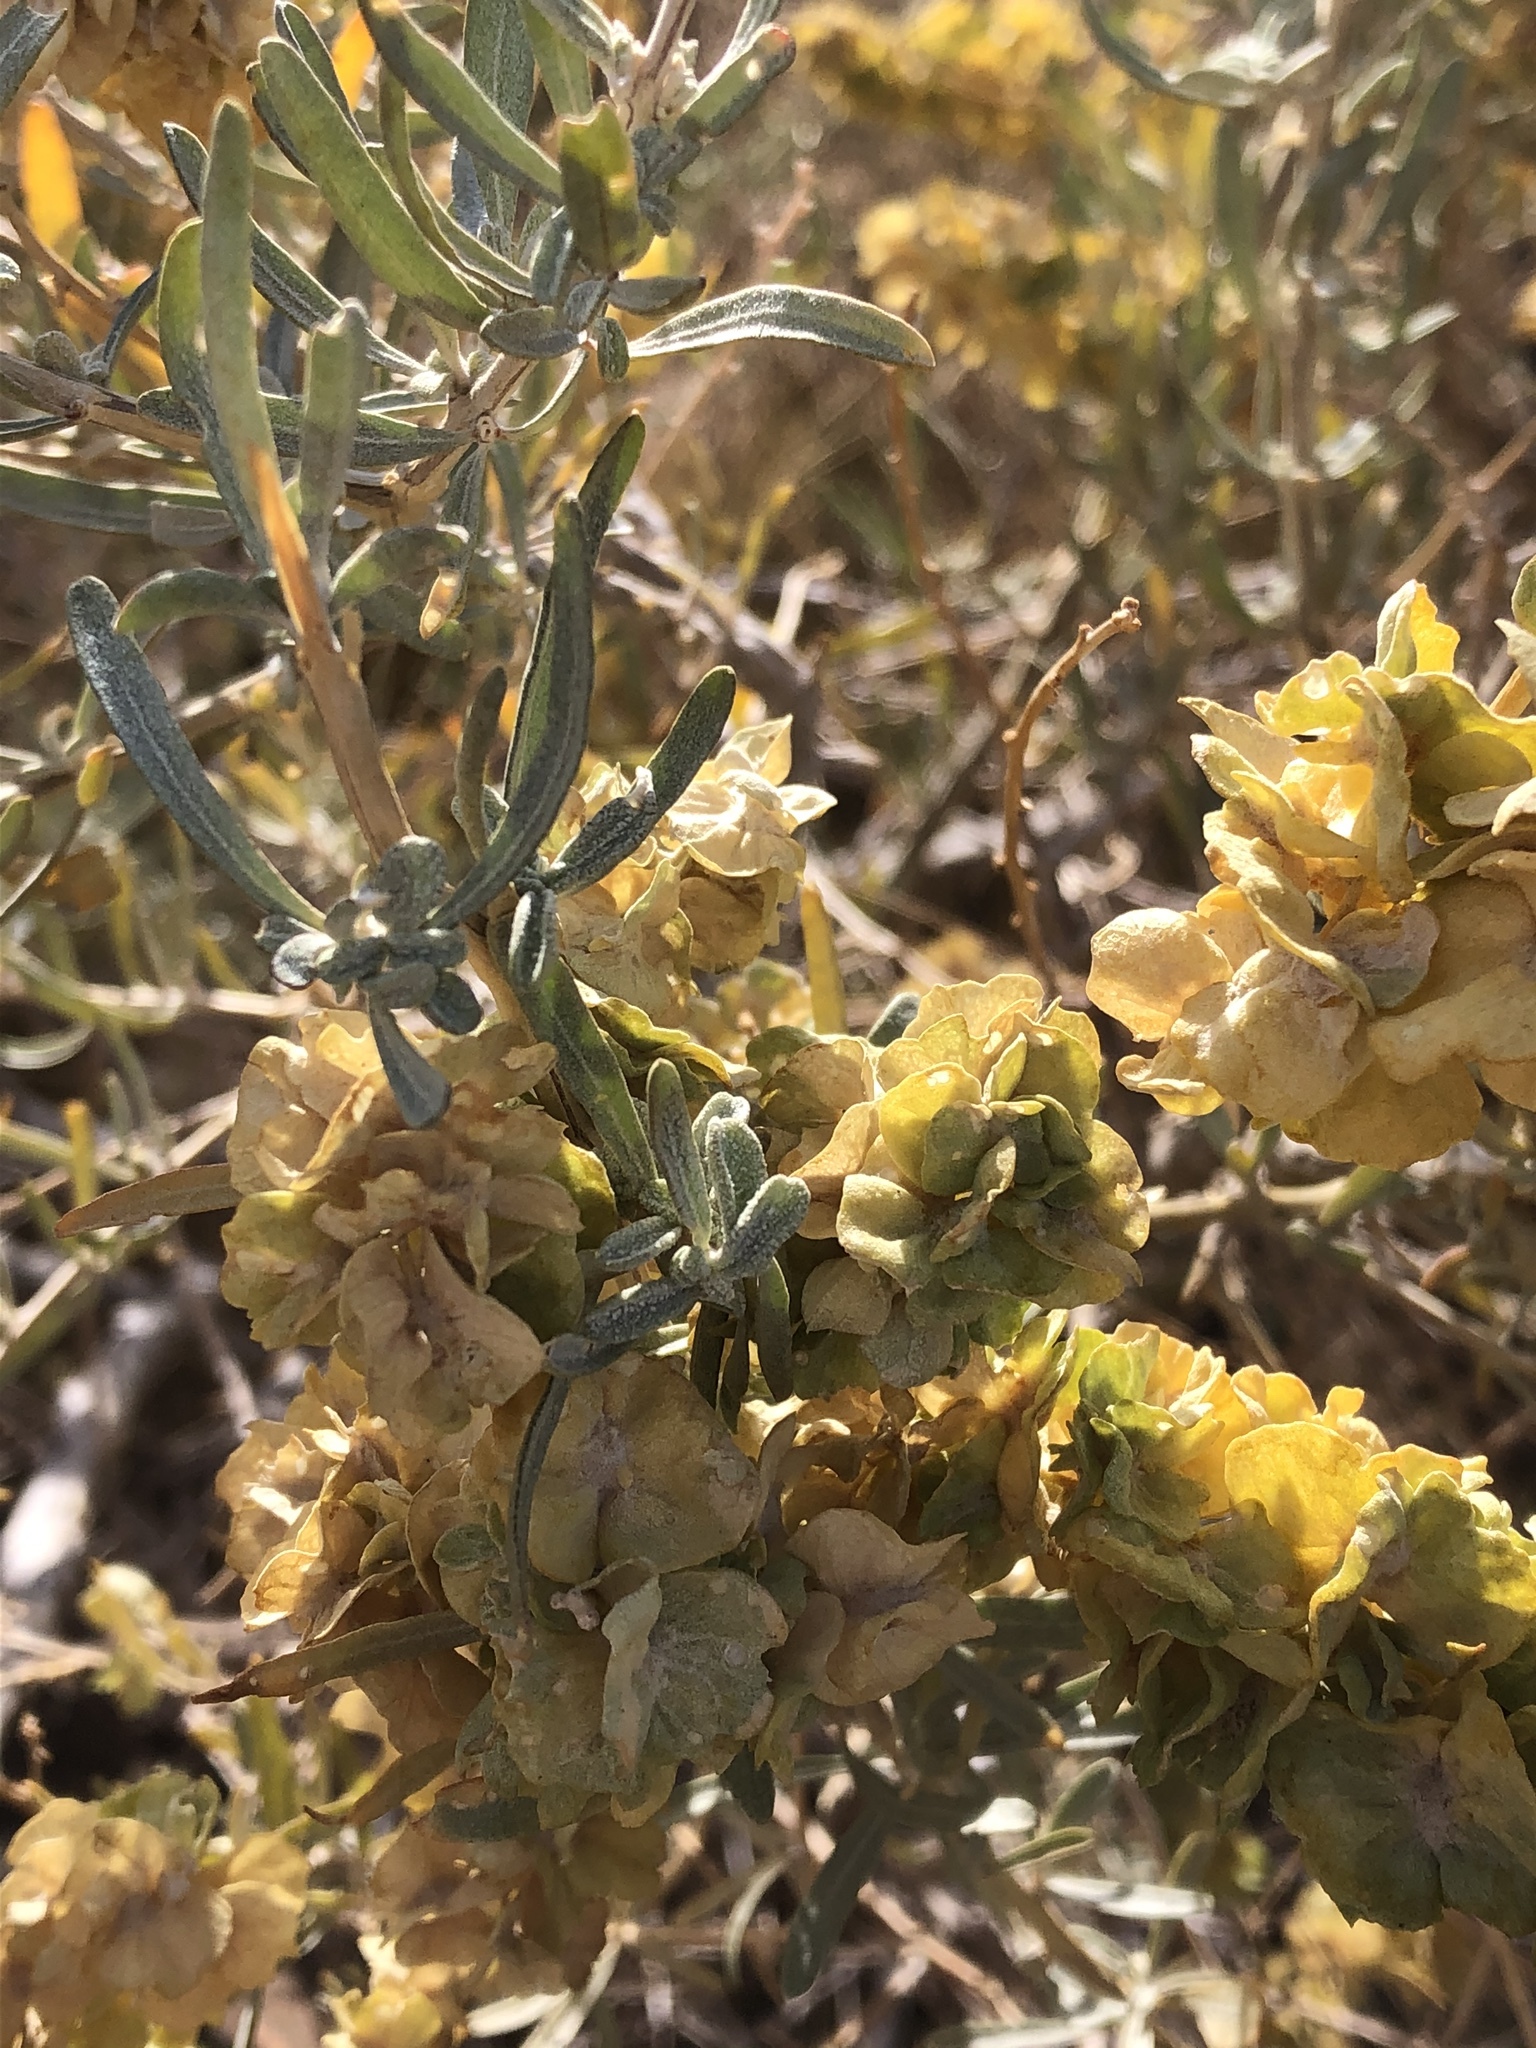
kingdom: Plantae
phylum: Tracheophyta
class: Magnoliopsida
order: Caryophyllales
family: Amaranthaceae
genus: Atriplex
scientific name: Atriplex canescens
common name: Four-wing saltbush
